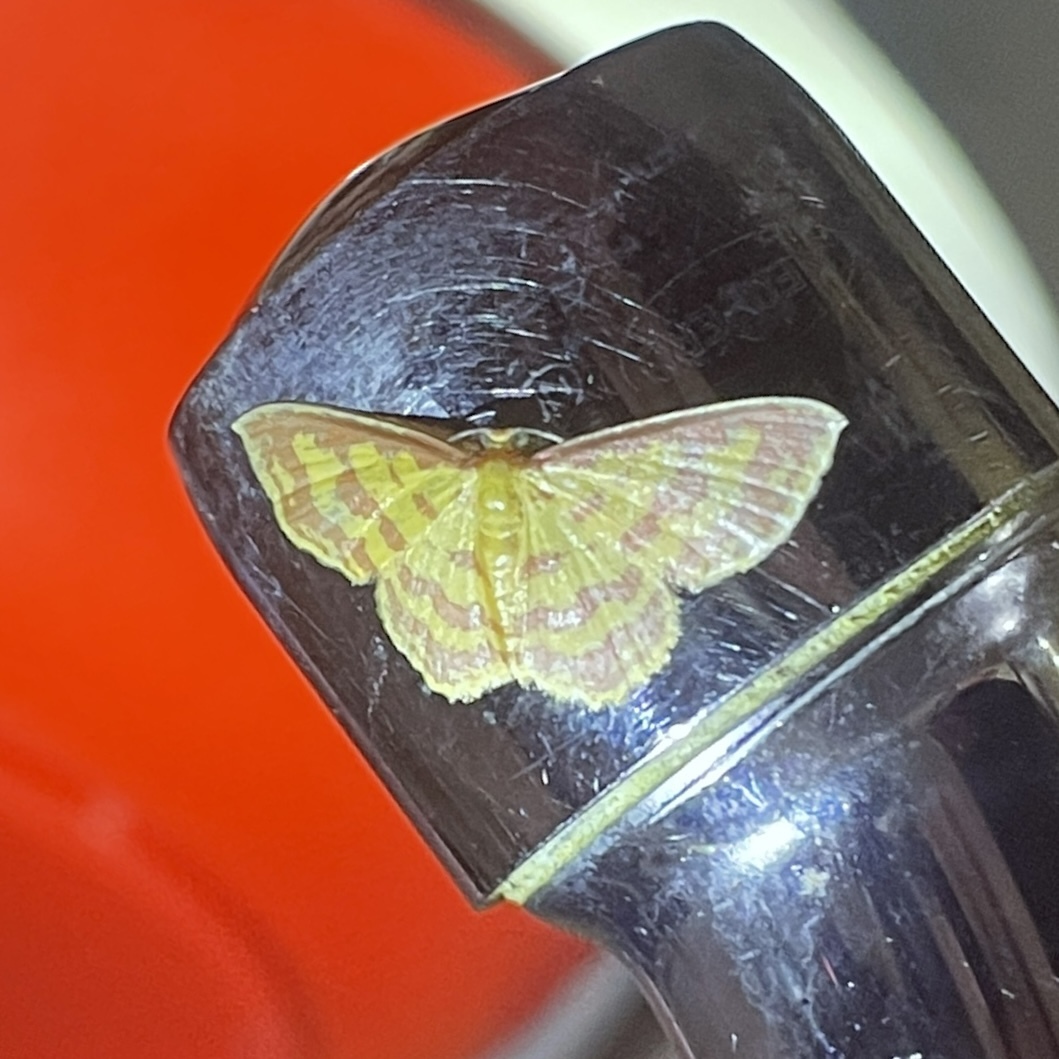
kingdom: Animalia
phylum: Arthropoda
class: Insecta
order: Lepidoptera
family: Geometridae
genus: Eois
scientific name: Eois binaria
